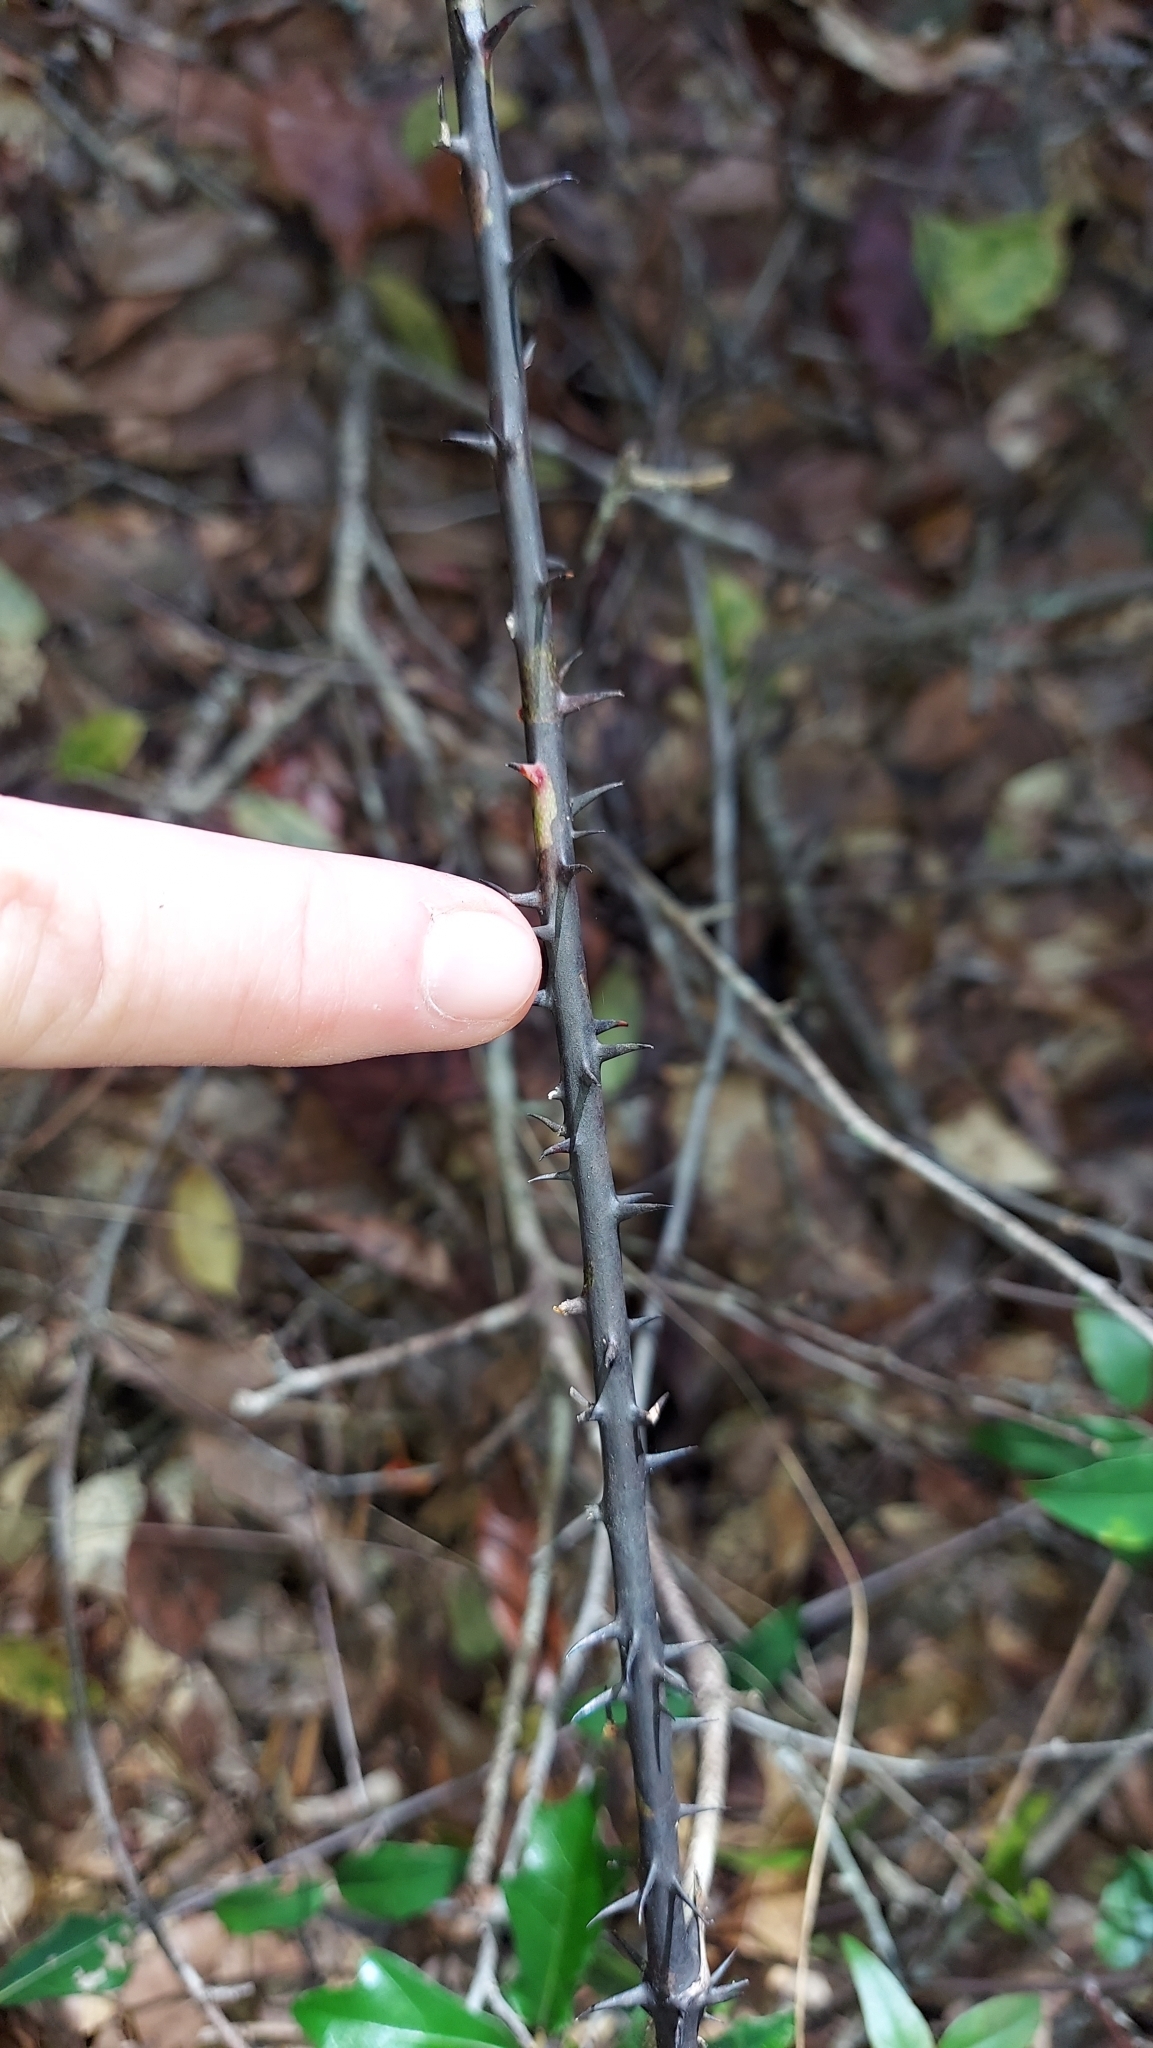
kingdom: Plantae
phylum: Tracheophyta
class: Liliopsida
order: Liliales
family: Smilacaceae
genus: Smilax
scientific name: Smilax glauca
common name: Cat greenbrier
